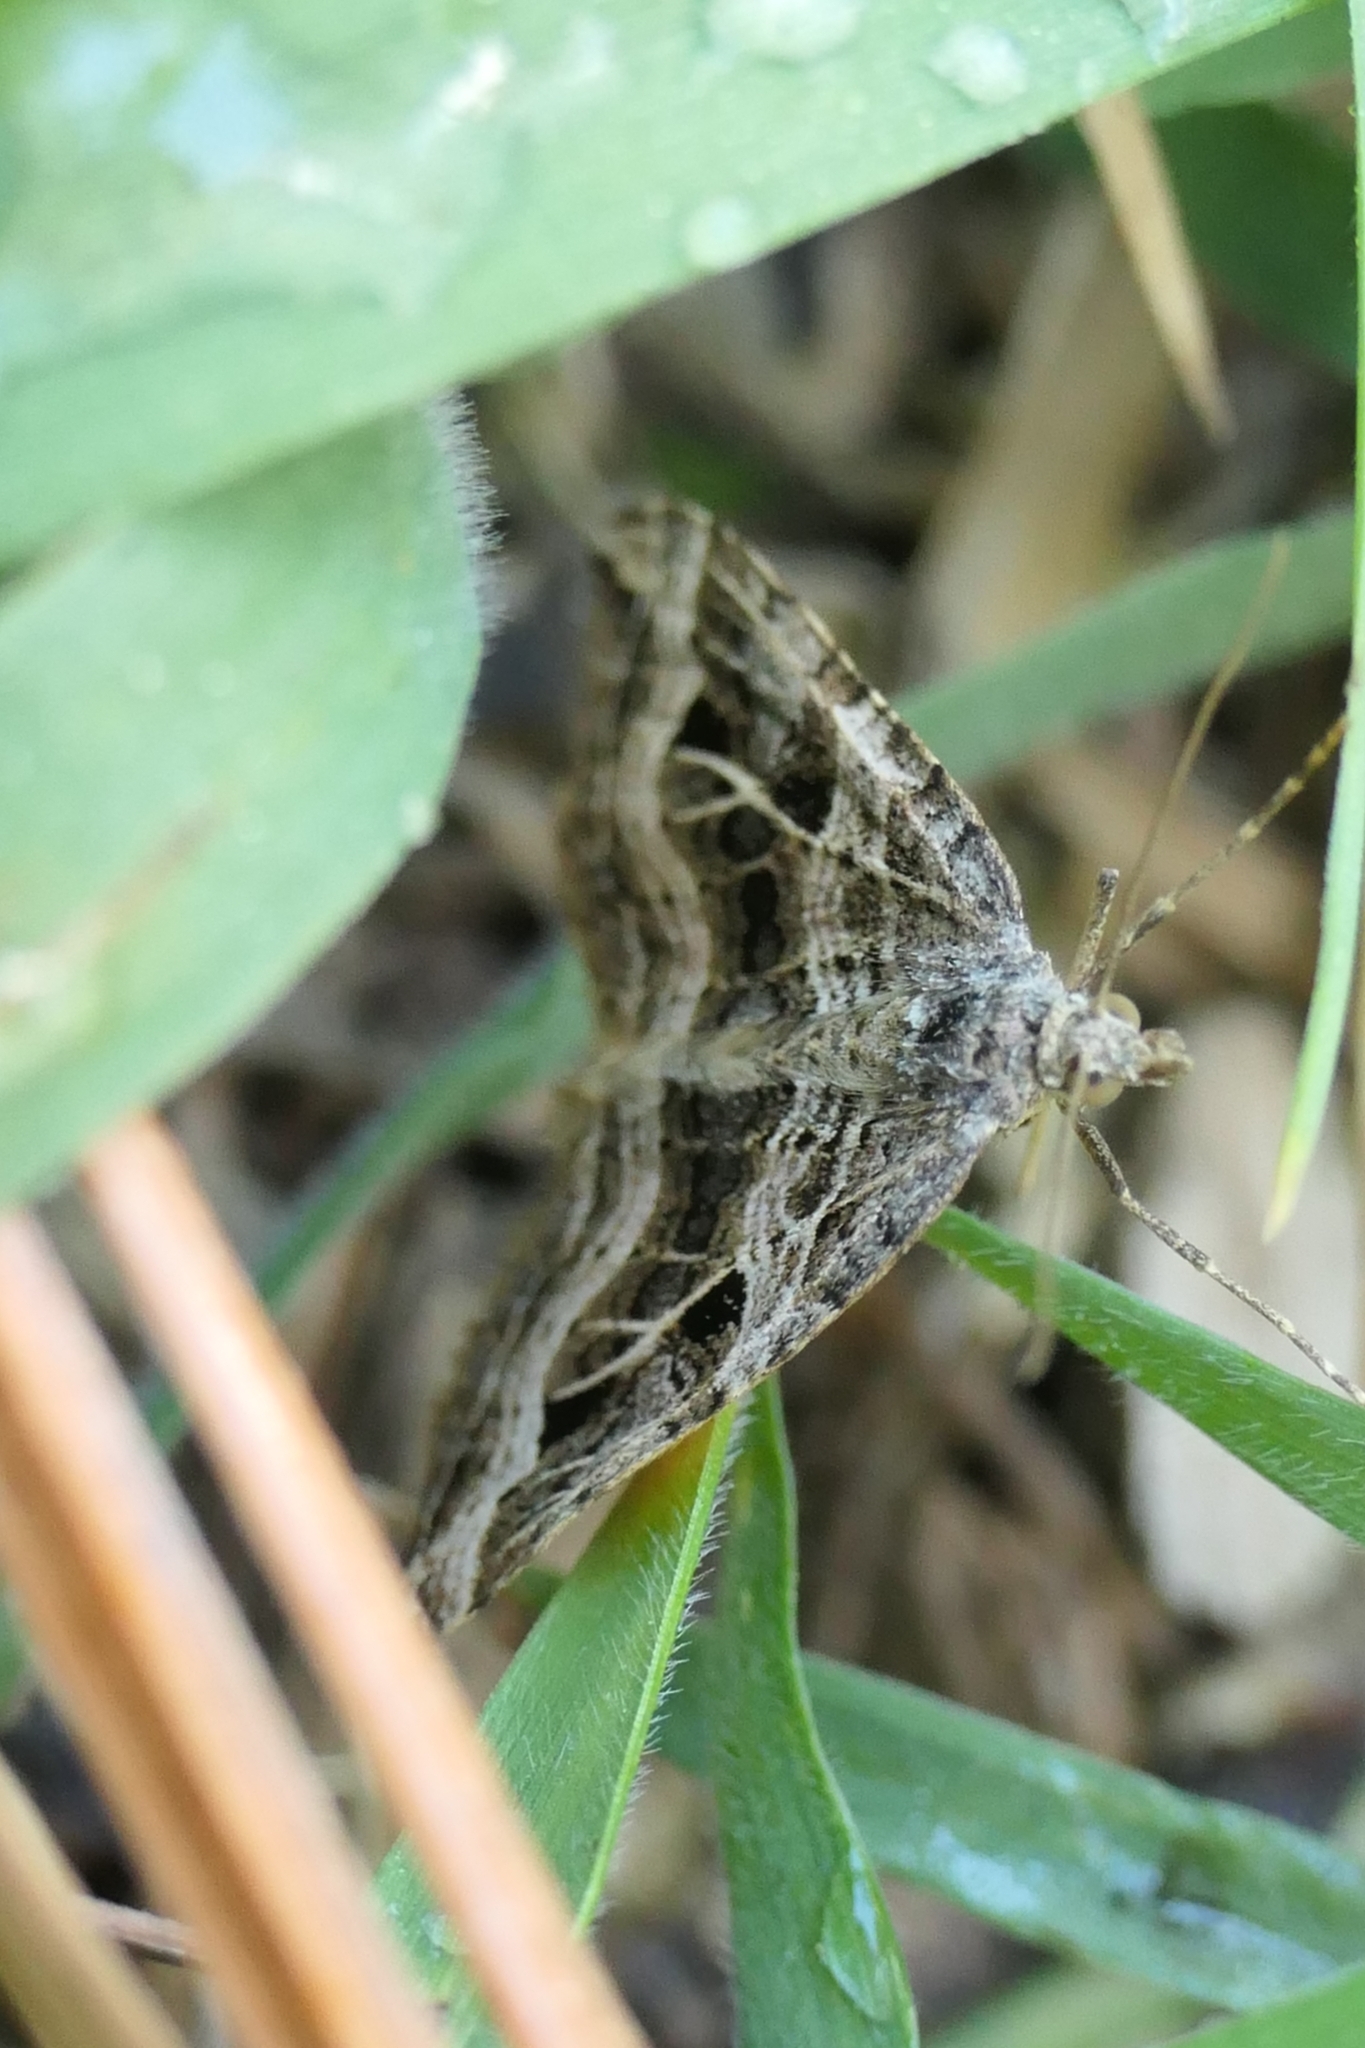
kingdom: Animalia
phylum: Arthropoda
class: Insecta
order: Lepidoptera
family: Geometridae
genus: Xanthorhoe
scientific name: Xanthorhoe semifissata
